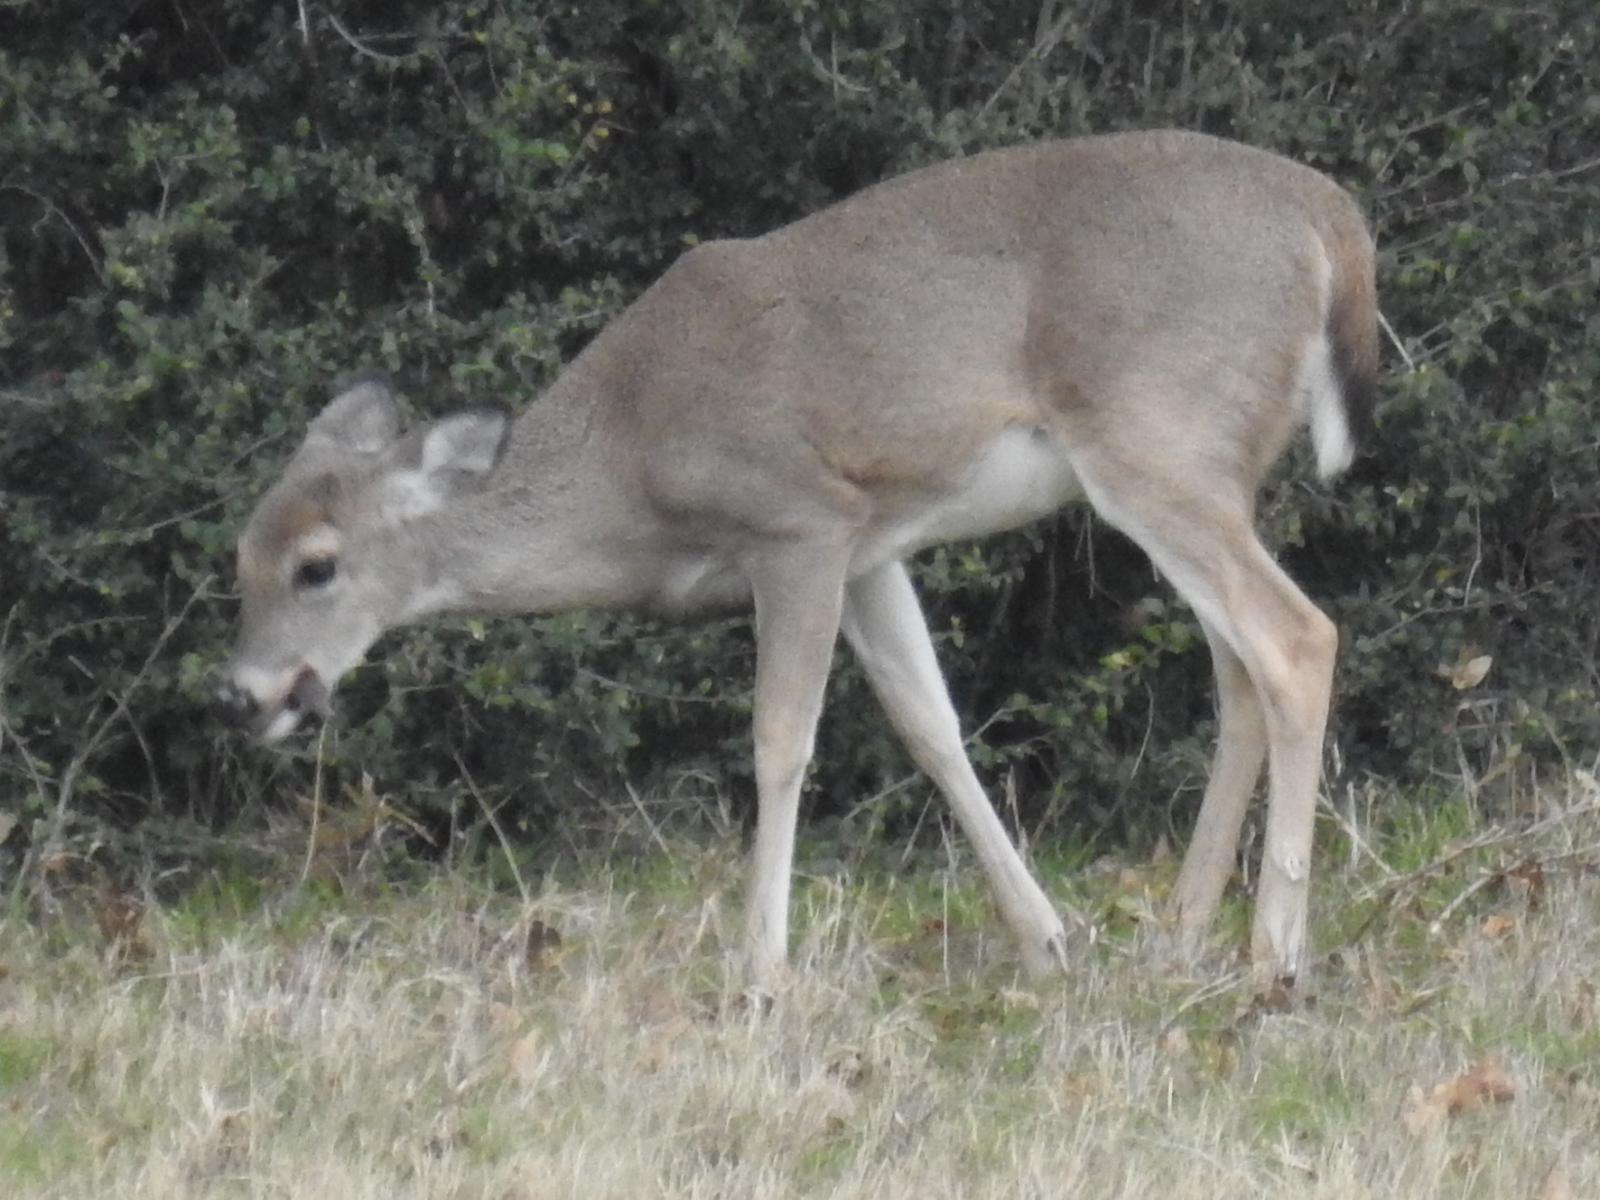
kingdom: Animalia
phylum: Chordata
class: Mammalia
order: Artiodactyla
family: Cervidae
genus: Odocoileus
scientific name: Odocoileus virginianus
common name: White-tailed deer
